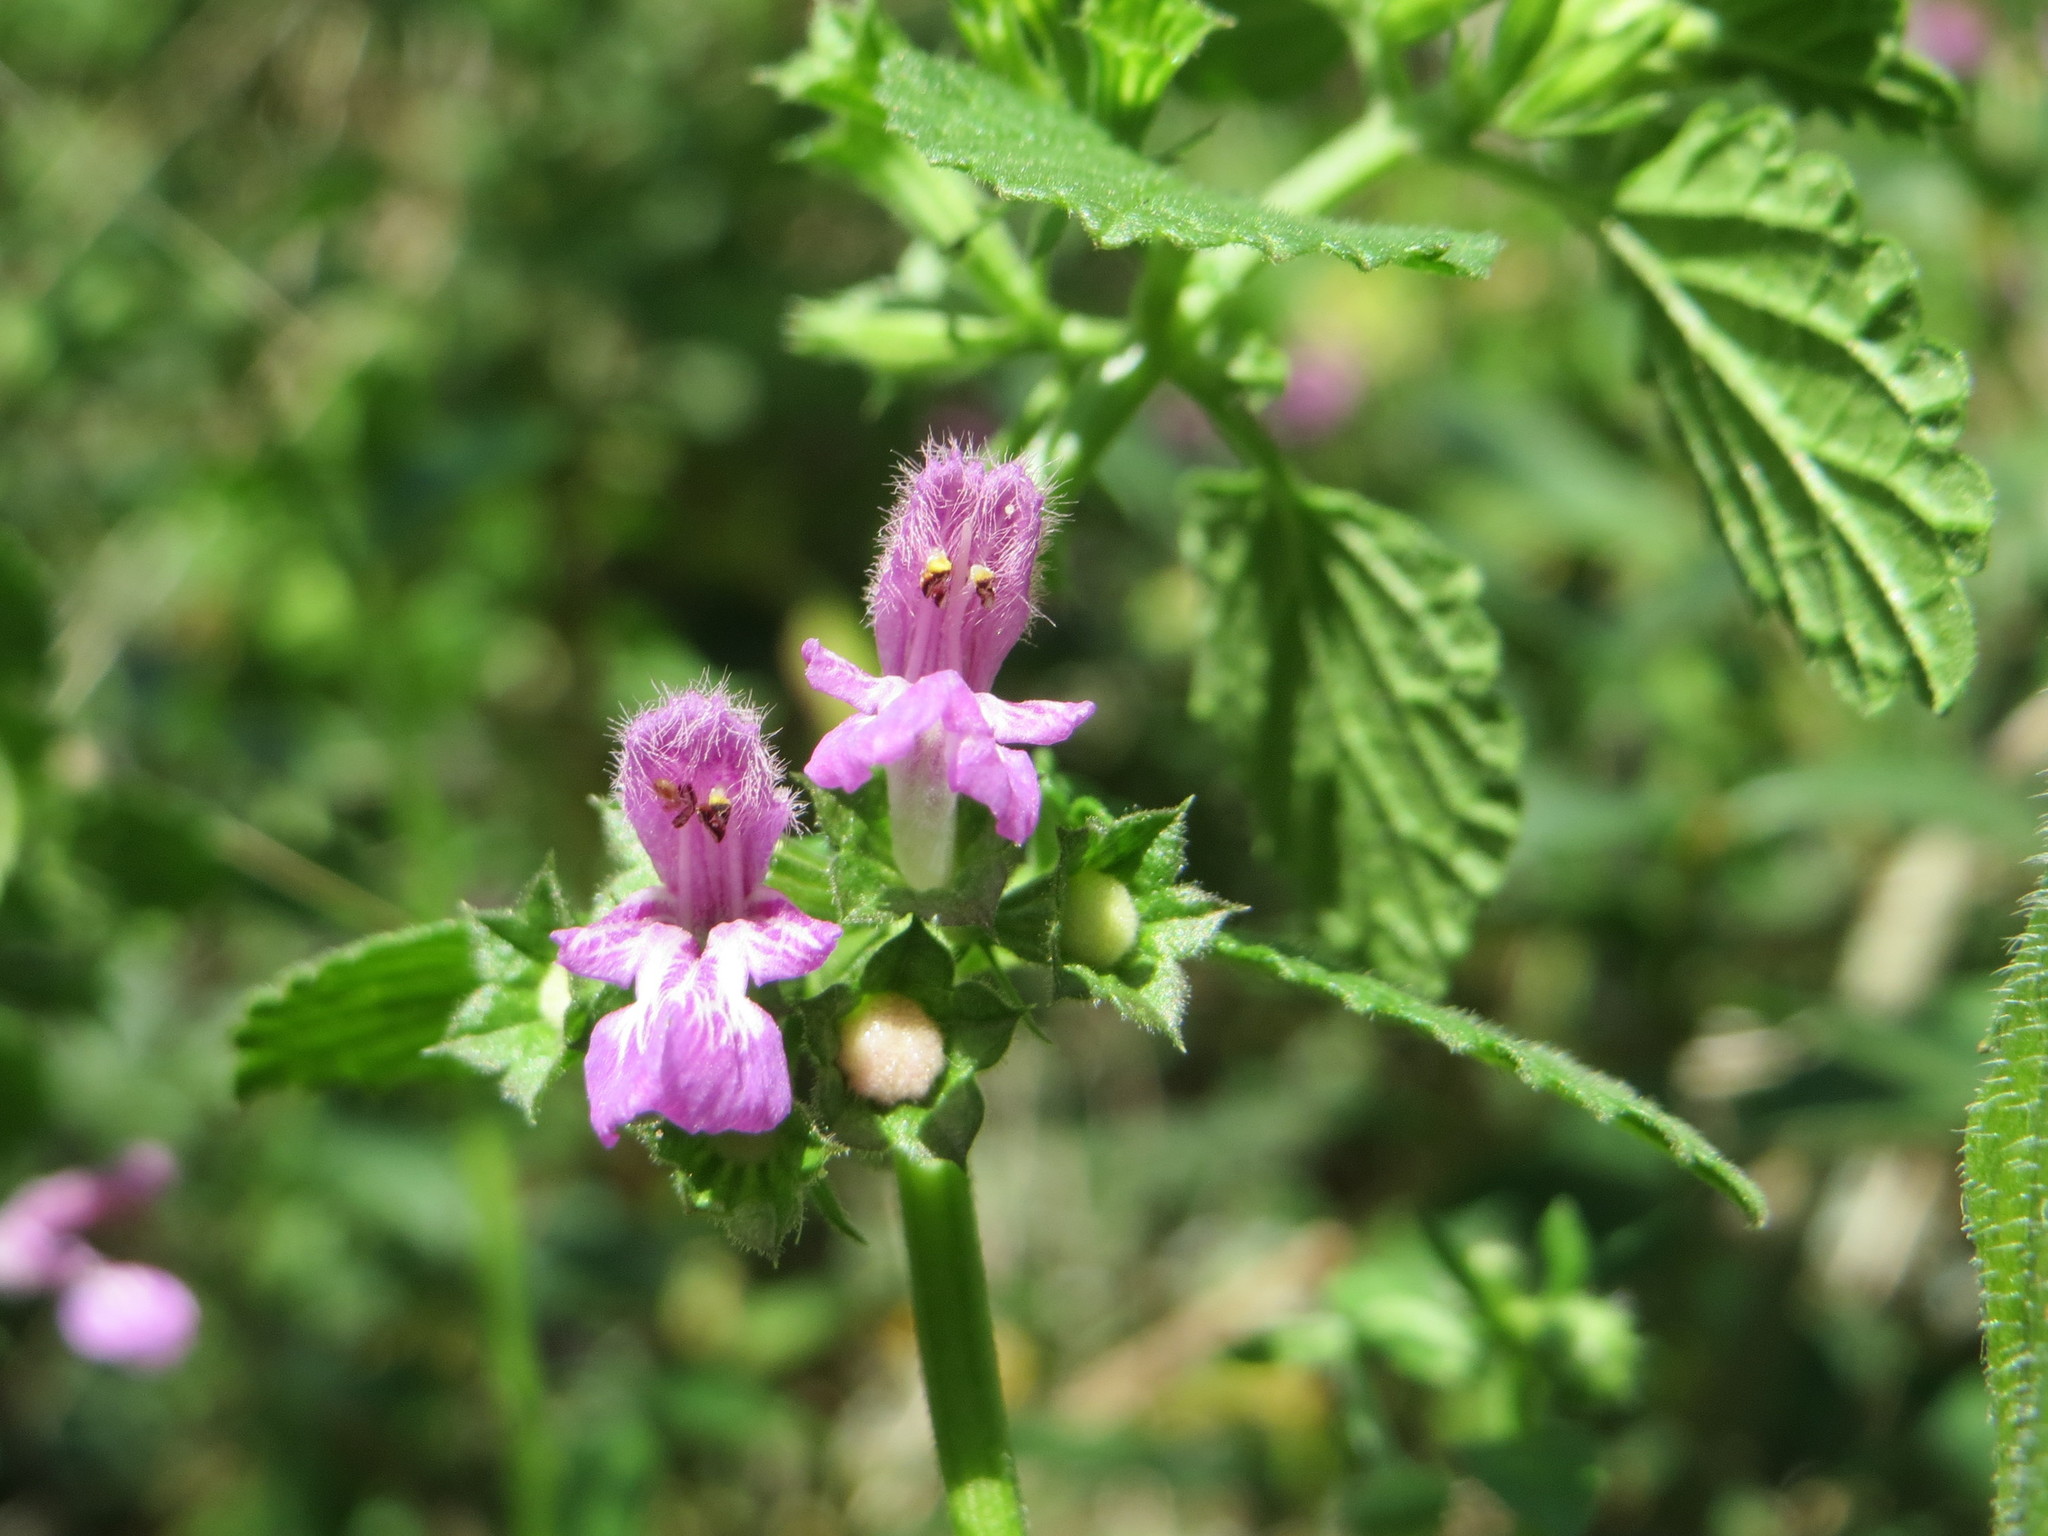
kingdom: Plantae
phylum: Tracheophyta
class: Magnoliopsida
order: Lamiales
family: Lamiaceae
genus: Ballota
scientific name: Ballota nigra
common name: Black horehound
